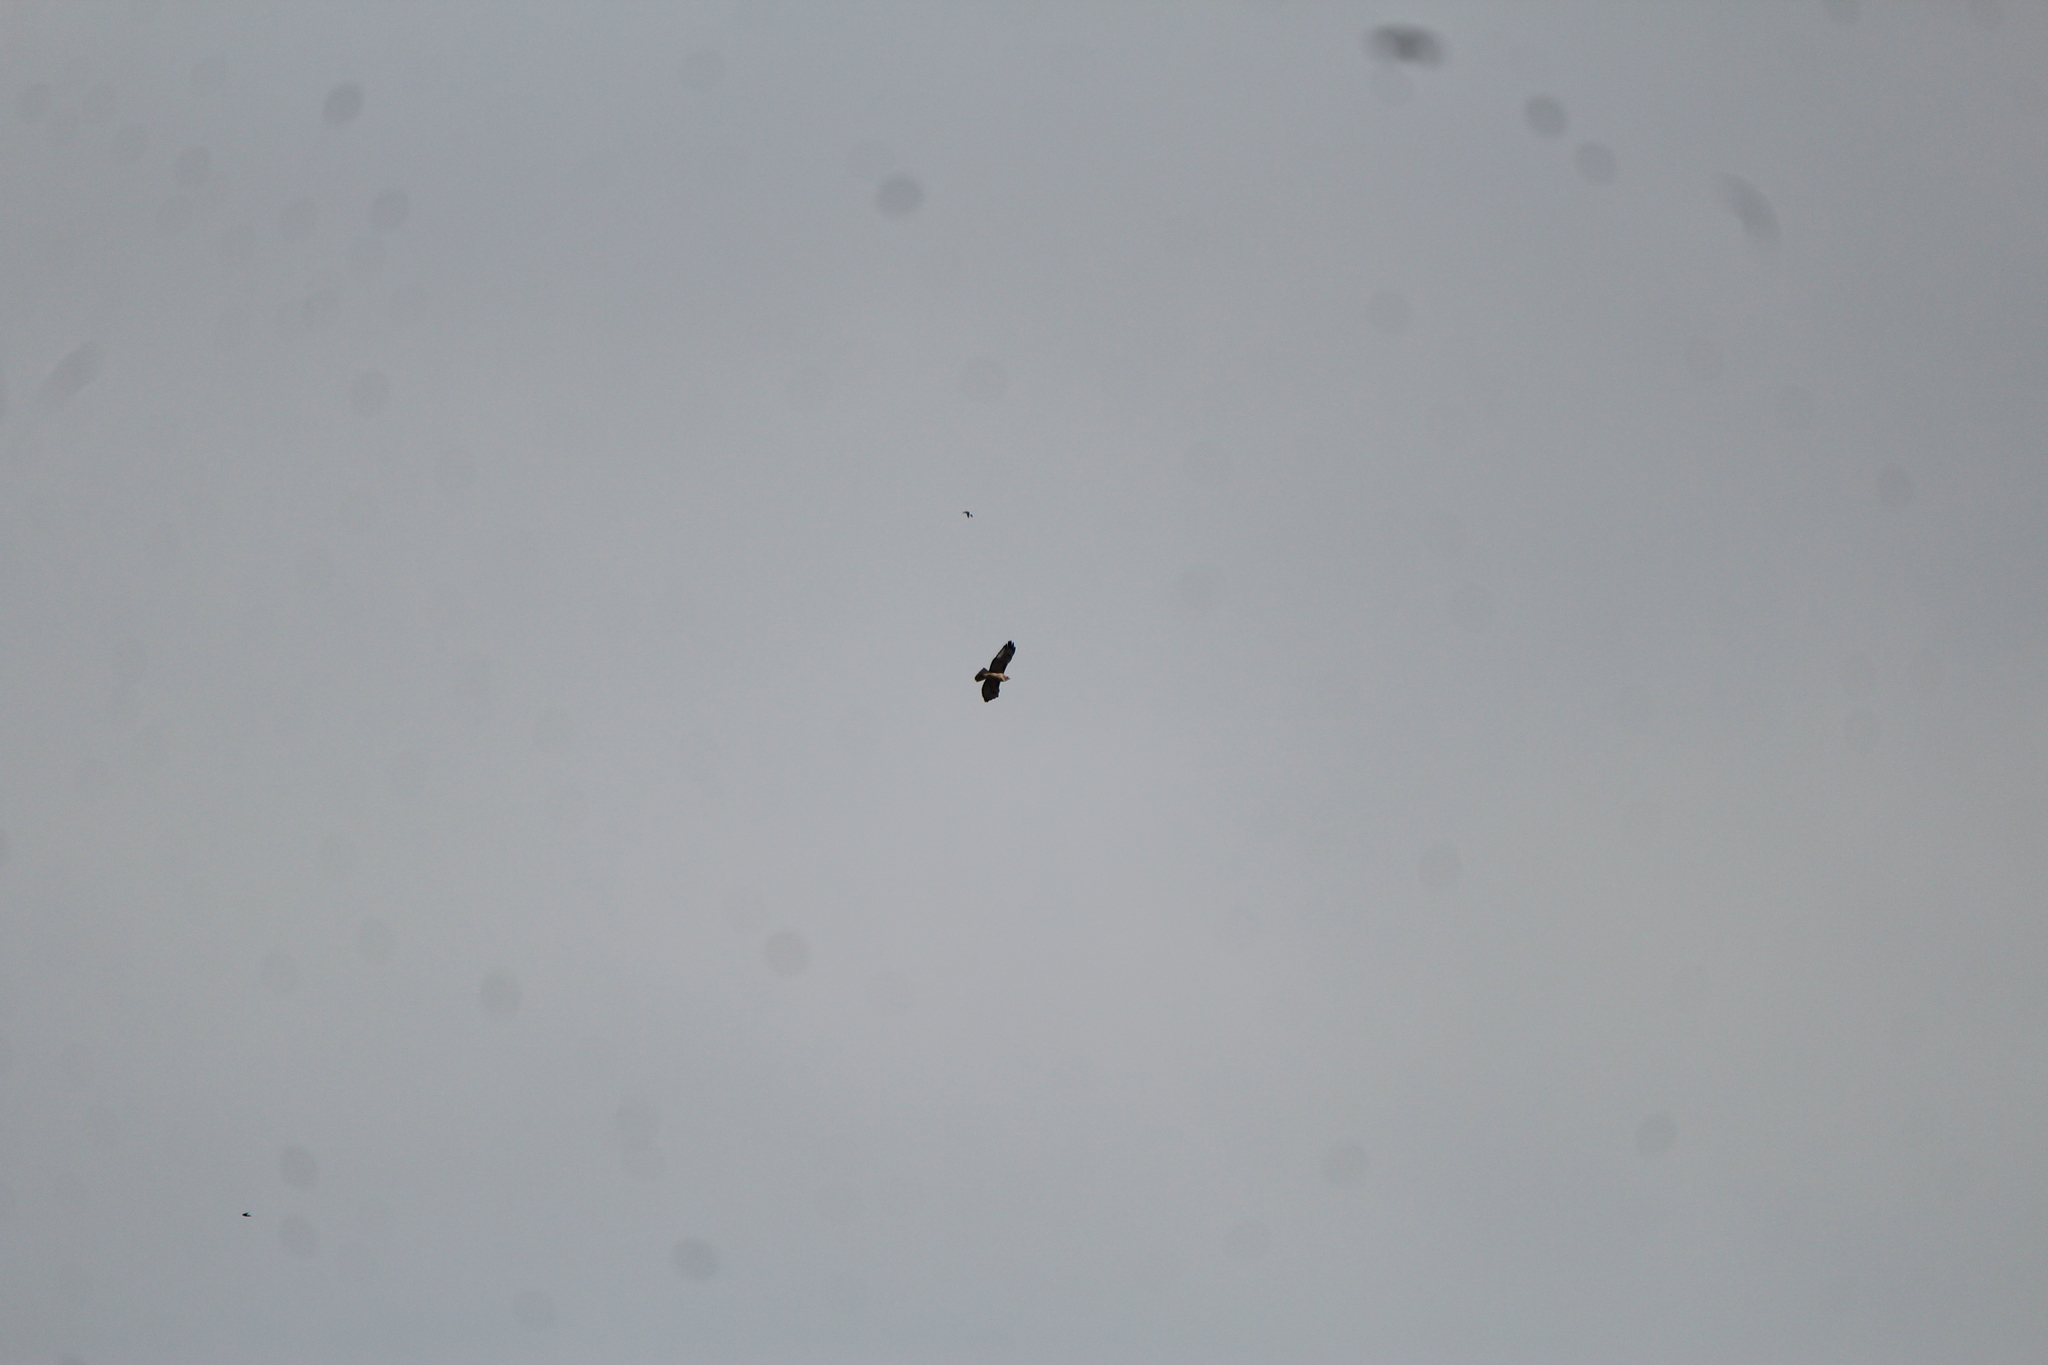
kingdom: Animalia
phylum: Chordata
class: Aves
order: Accipitriformes
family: Accipitridae
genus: Buteo
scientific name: Buteo jamaicensis
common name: Red-tailed hawk
